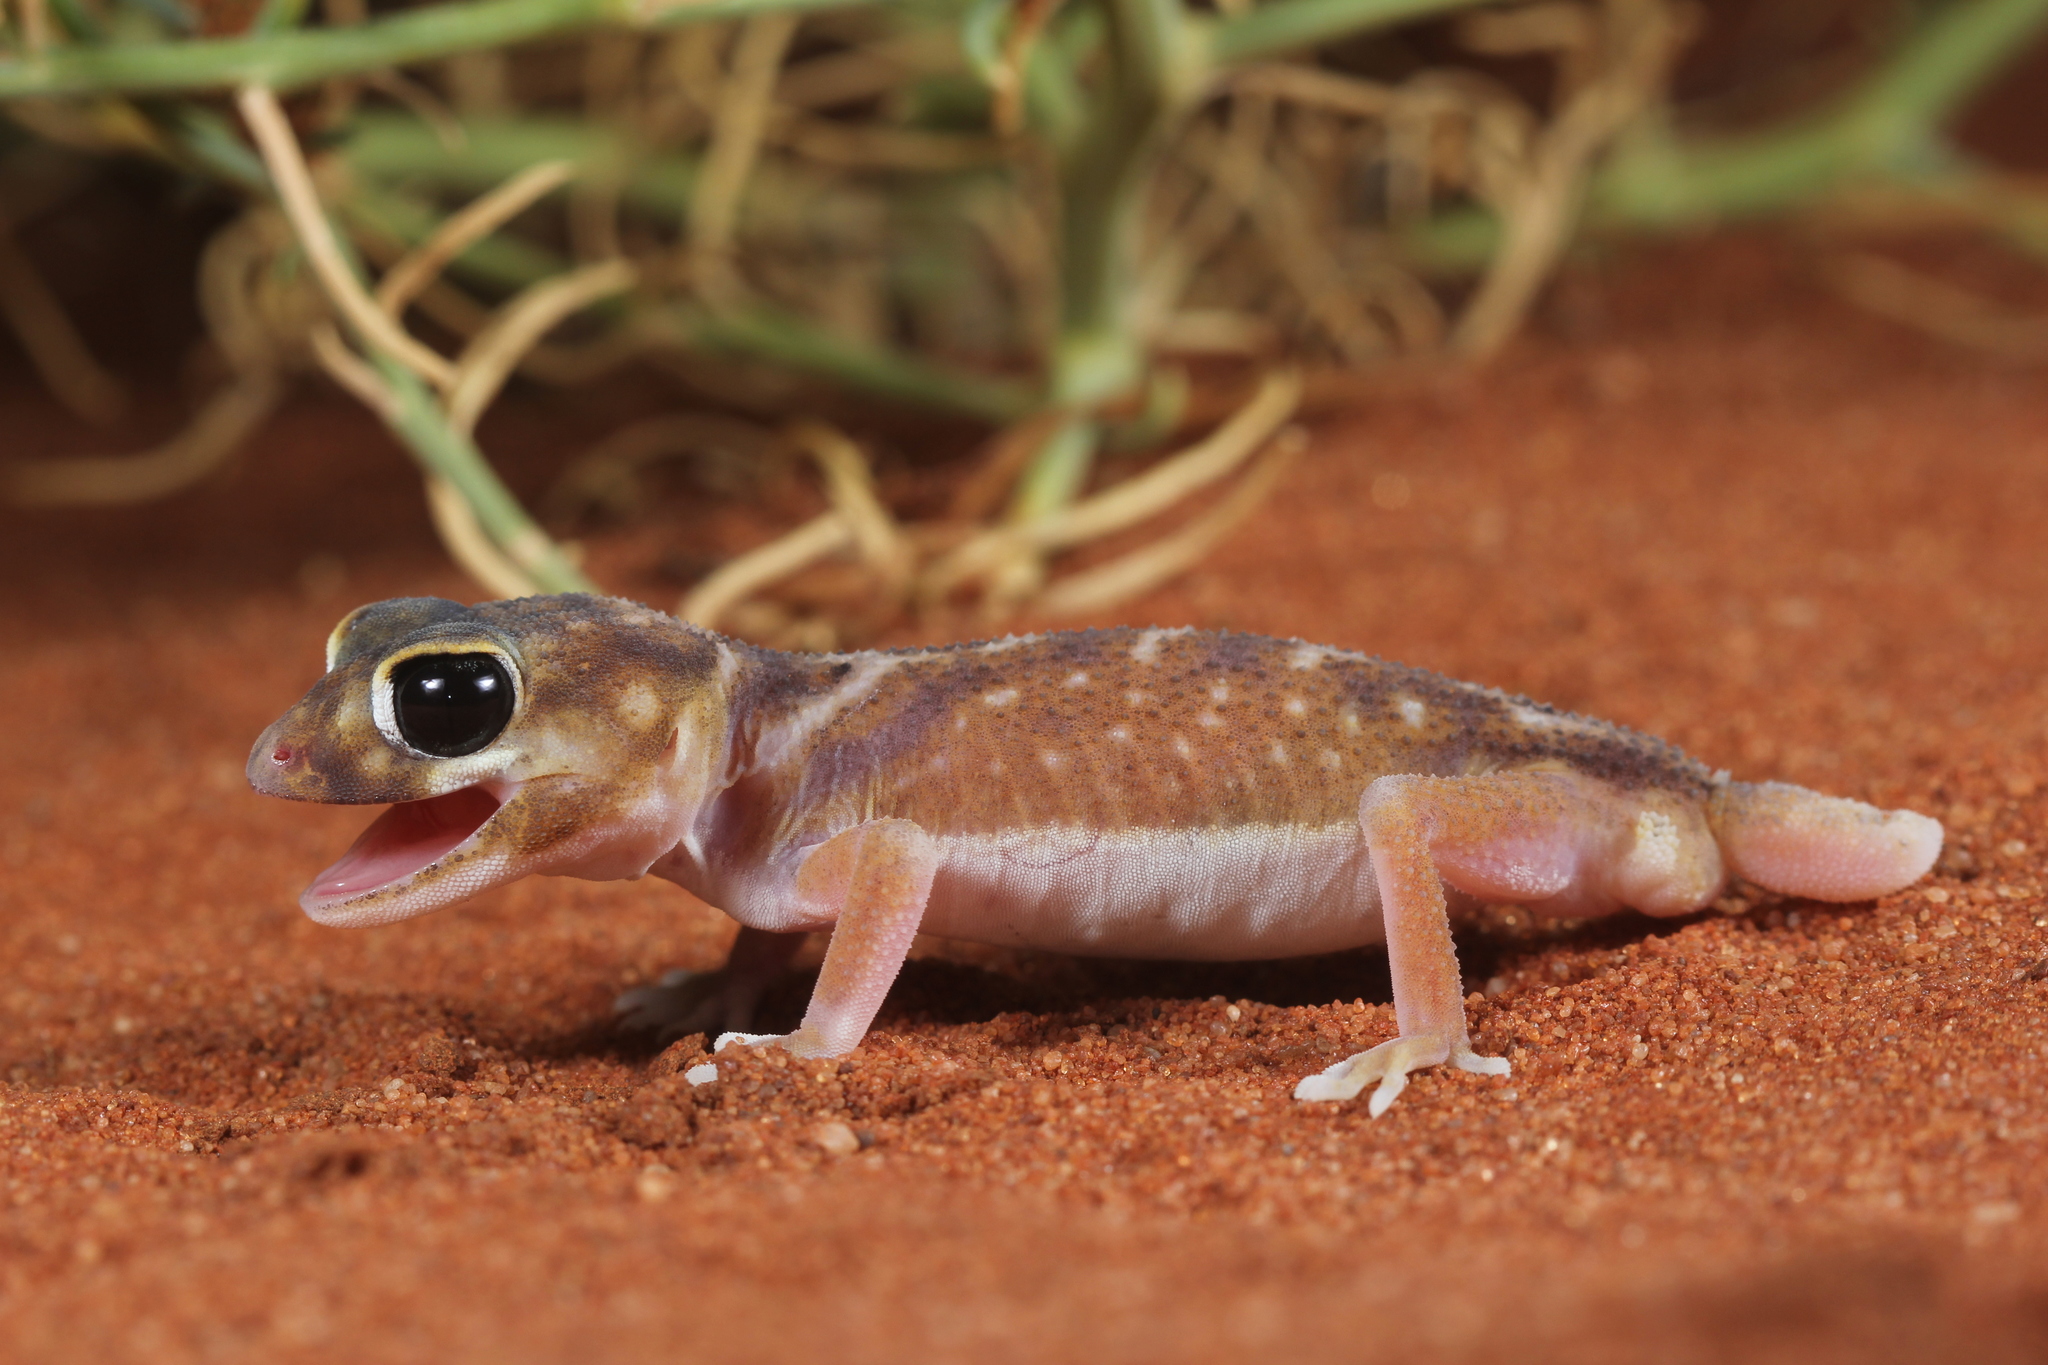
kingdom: Animalia
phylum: Chordata
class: Squamata
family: Carphodactylidae
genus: Nephrurus
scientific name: Nephrurus deleani
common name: Pernatty knob-tail
